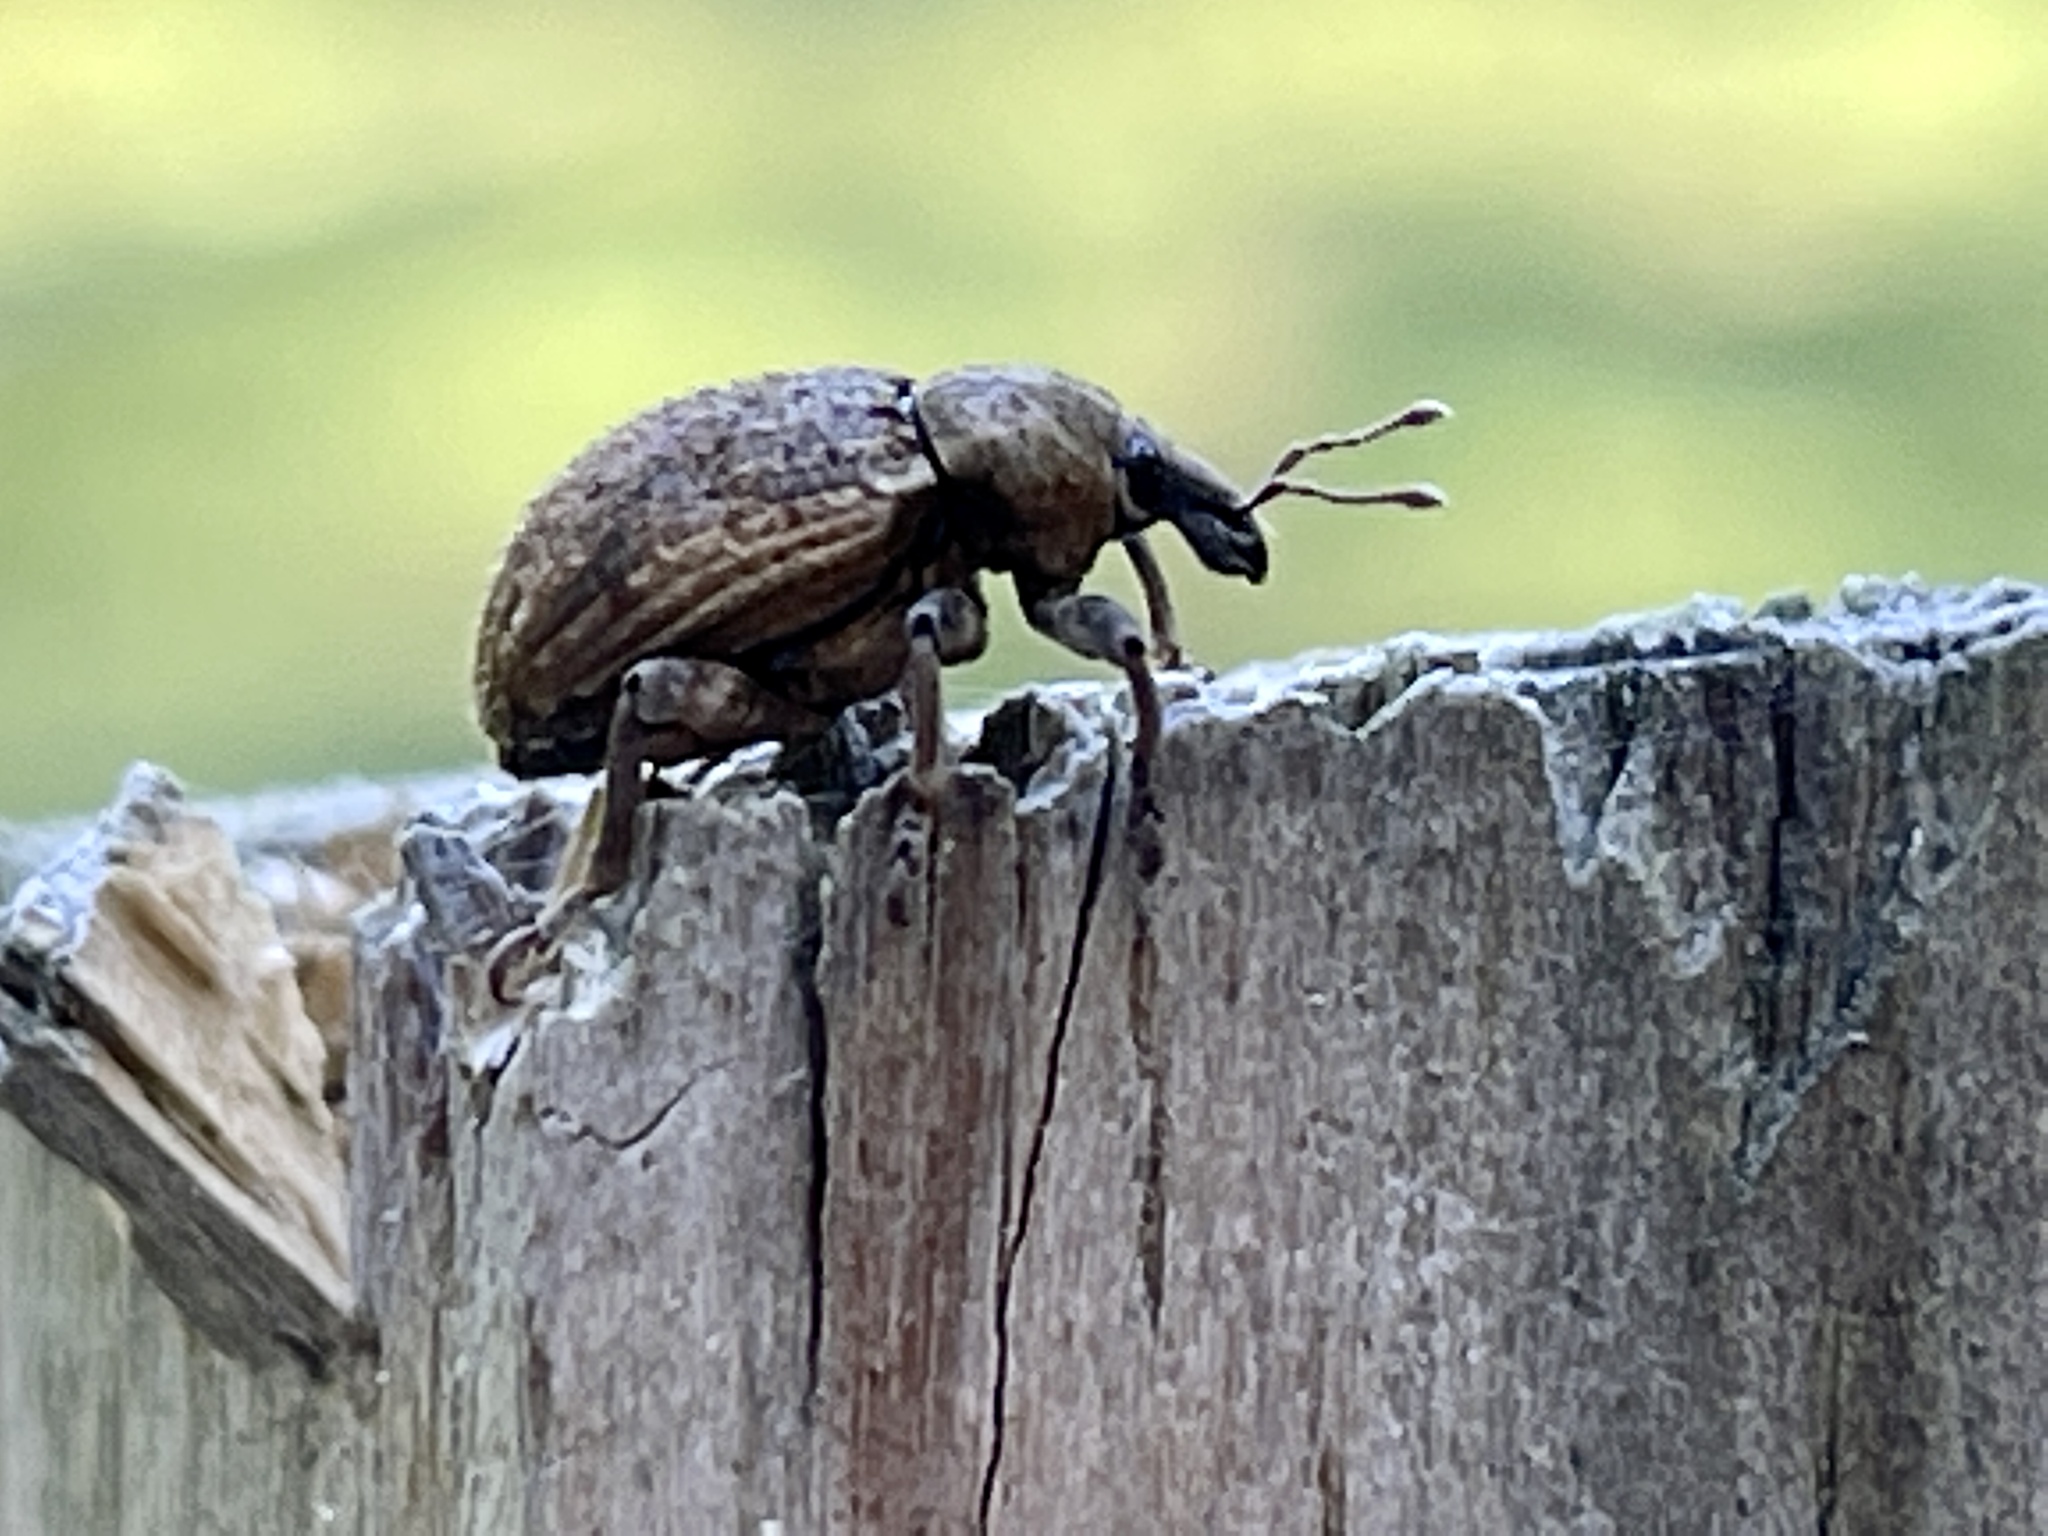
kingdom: Animalia
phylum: Arthropoda
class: Insecta
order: Coleoptera
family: Curculionidae
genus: Brachypera
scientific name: Brachypera zoilus
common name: Clover leaf weevil
